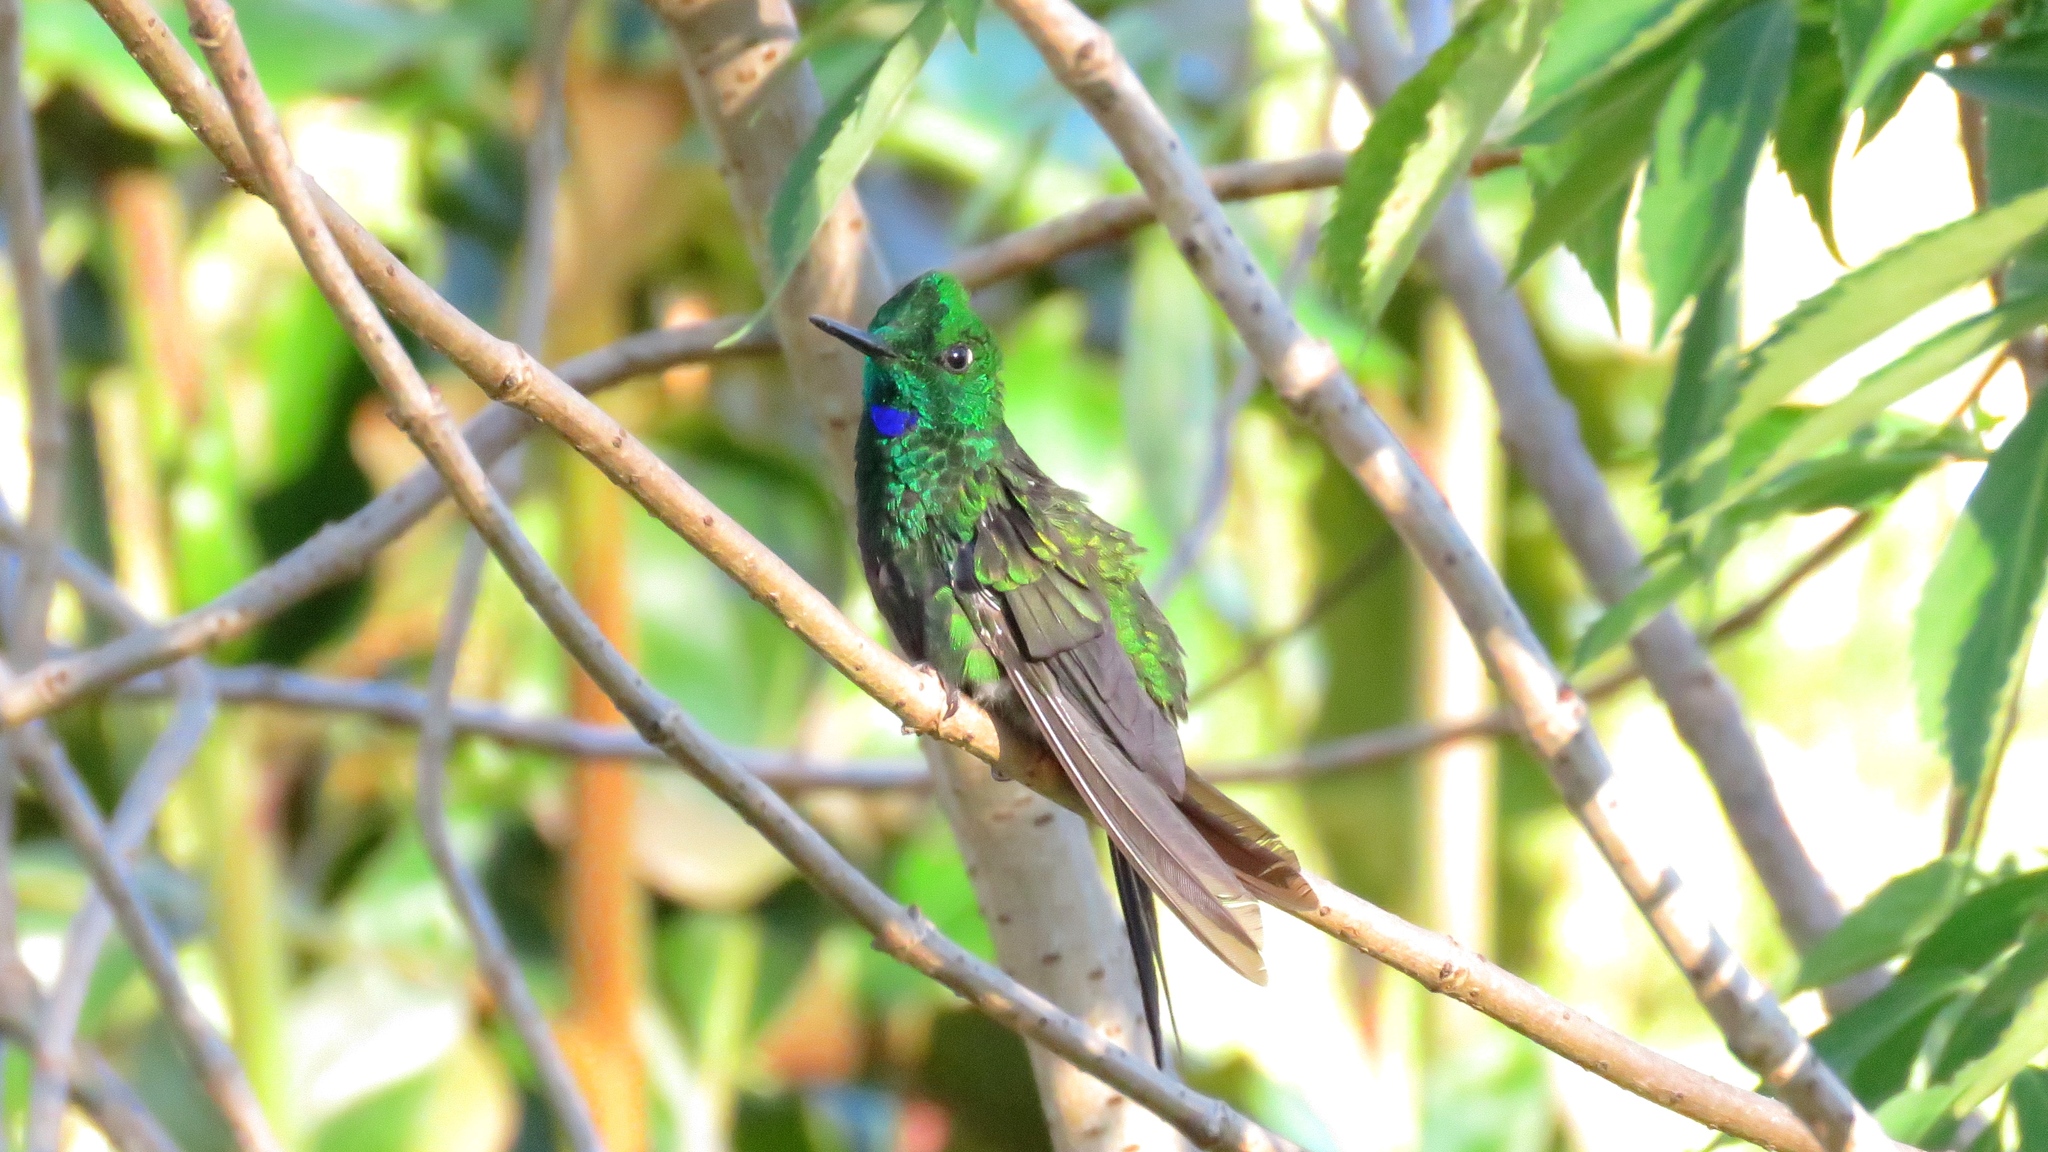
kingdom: Animalia
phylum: Chordata
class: Aves
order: Apodiformes
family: Trochilidae
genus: Heliodoxa
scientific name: Heliodoxa jacula
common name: Green-crowned brilliant
